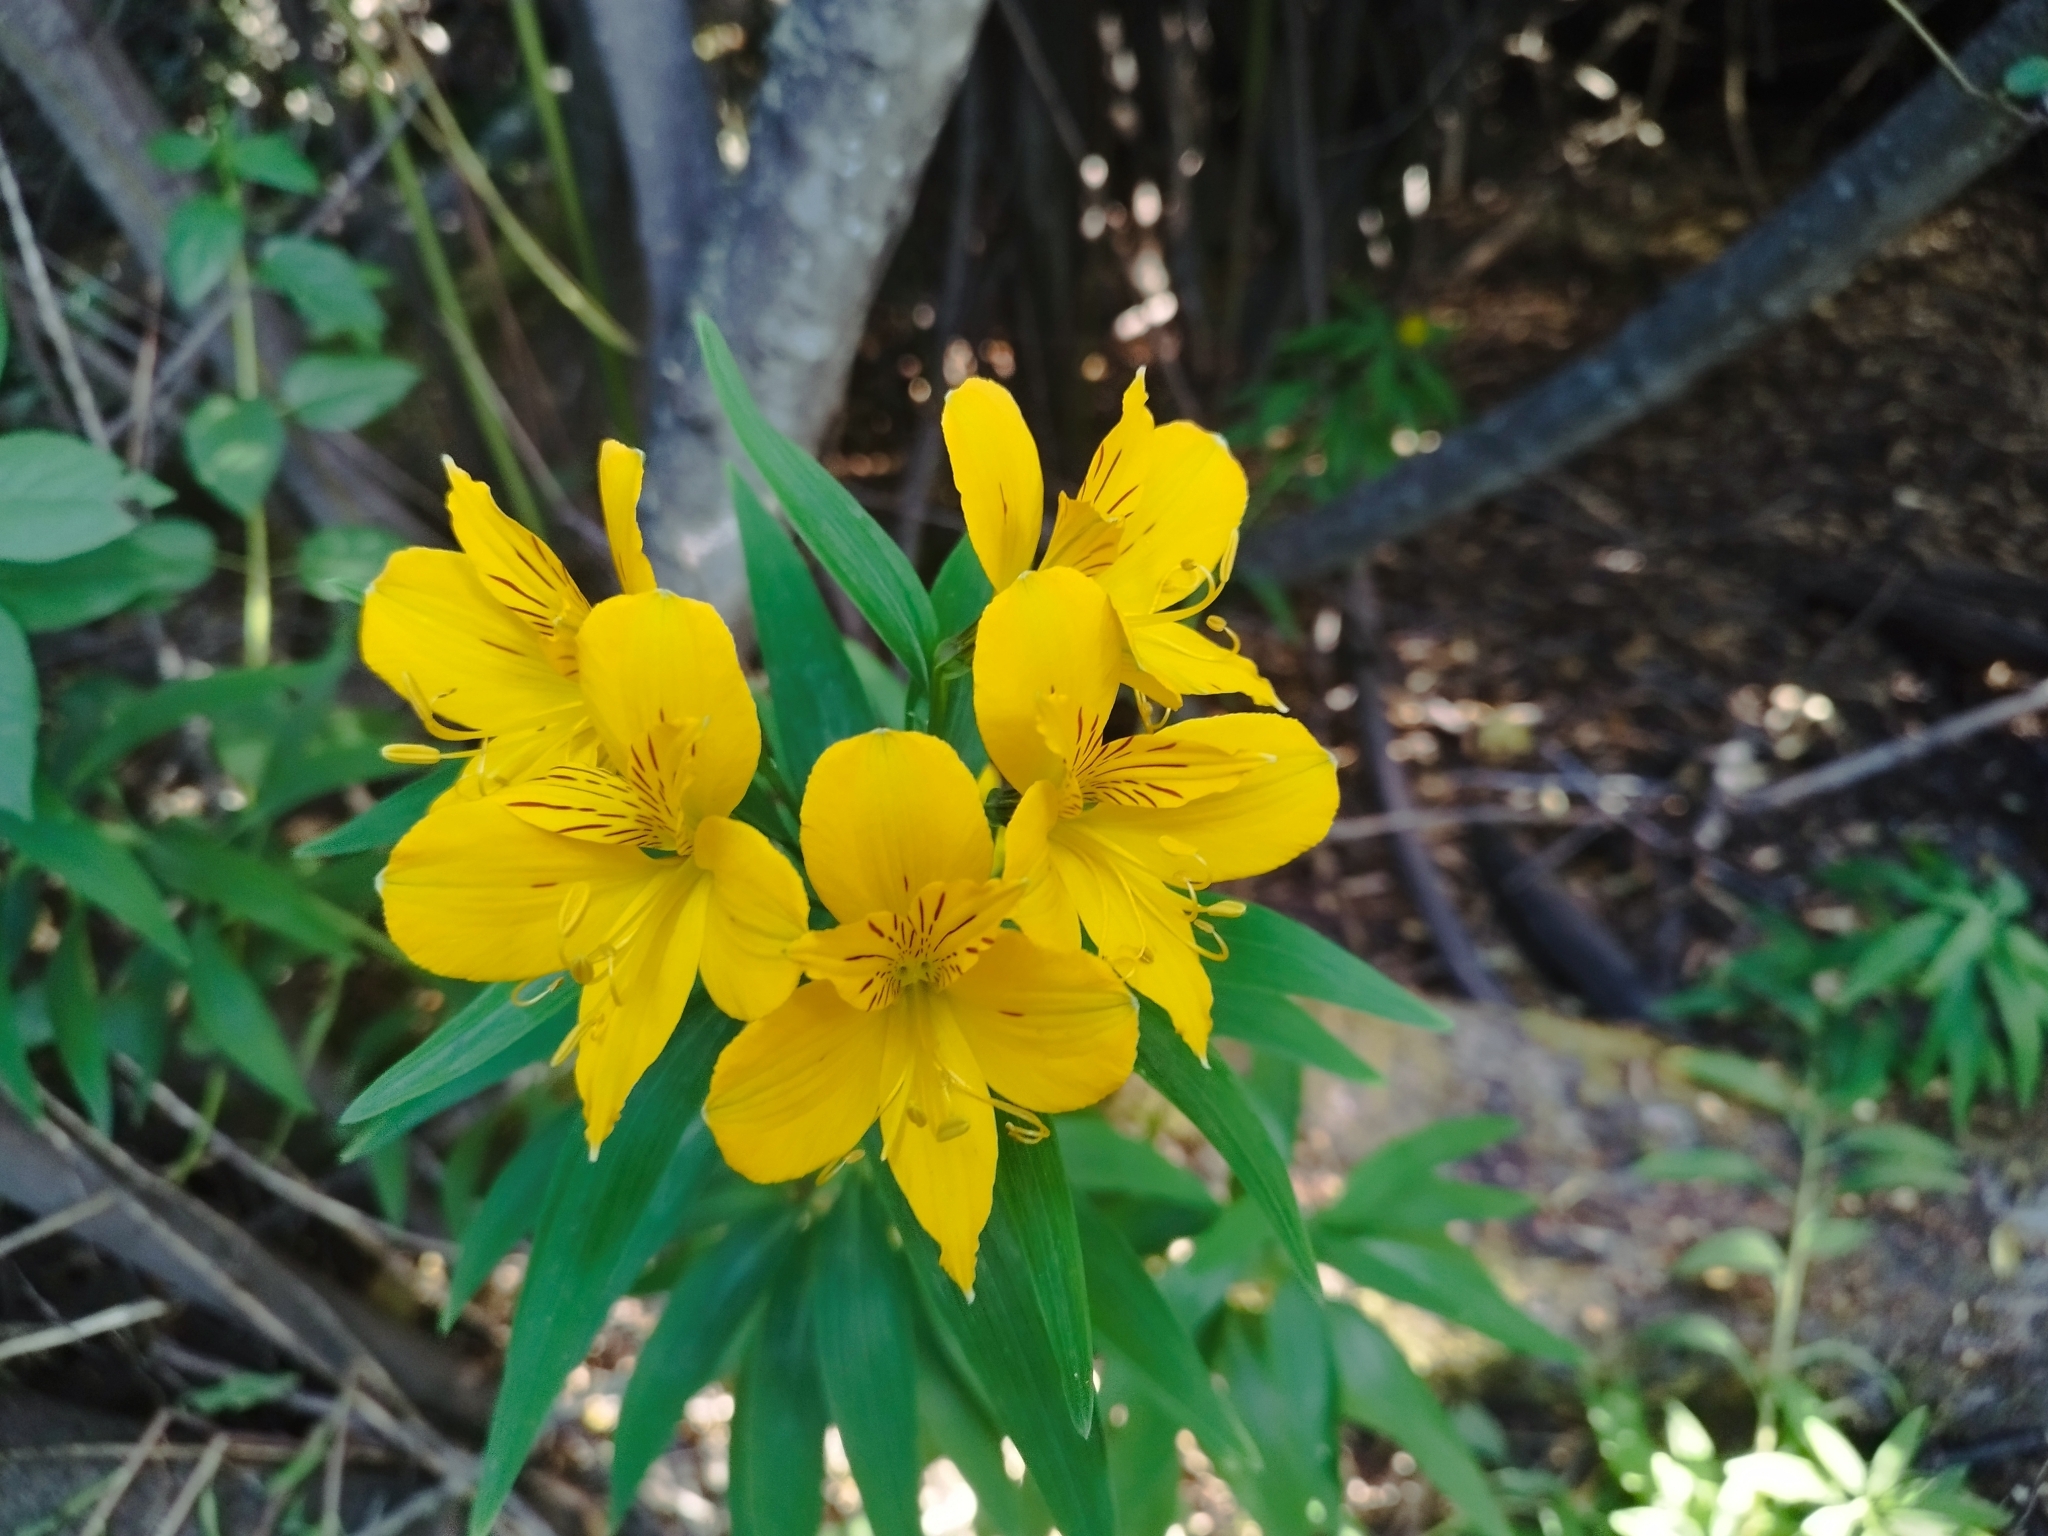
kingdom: Plantae
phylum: Tracheophyta
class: Liliopsida
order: Liliales
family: Alstroemeriaceae
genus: Alstroemeria
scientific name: Alstroemeria aurea
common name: Peruvian lily
